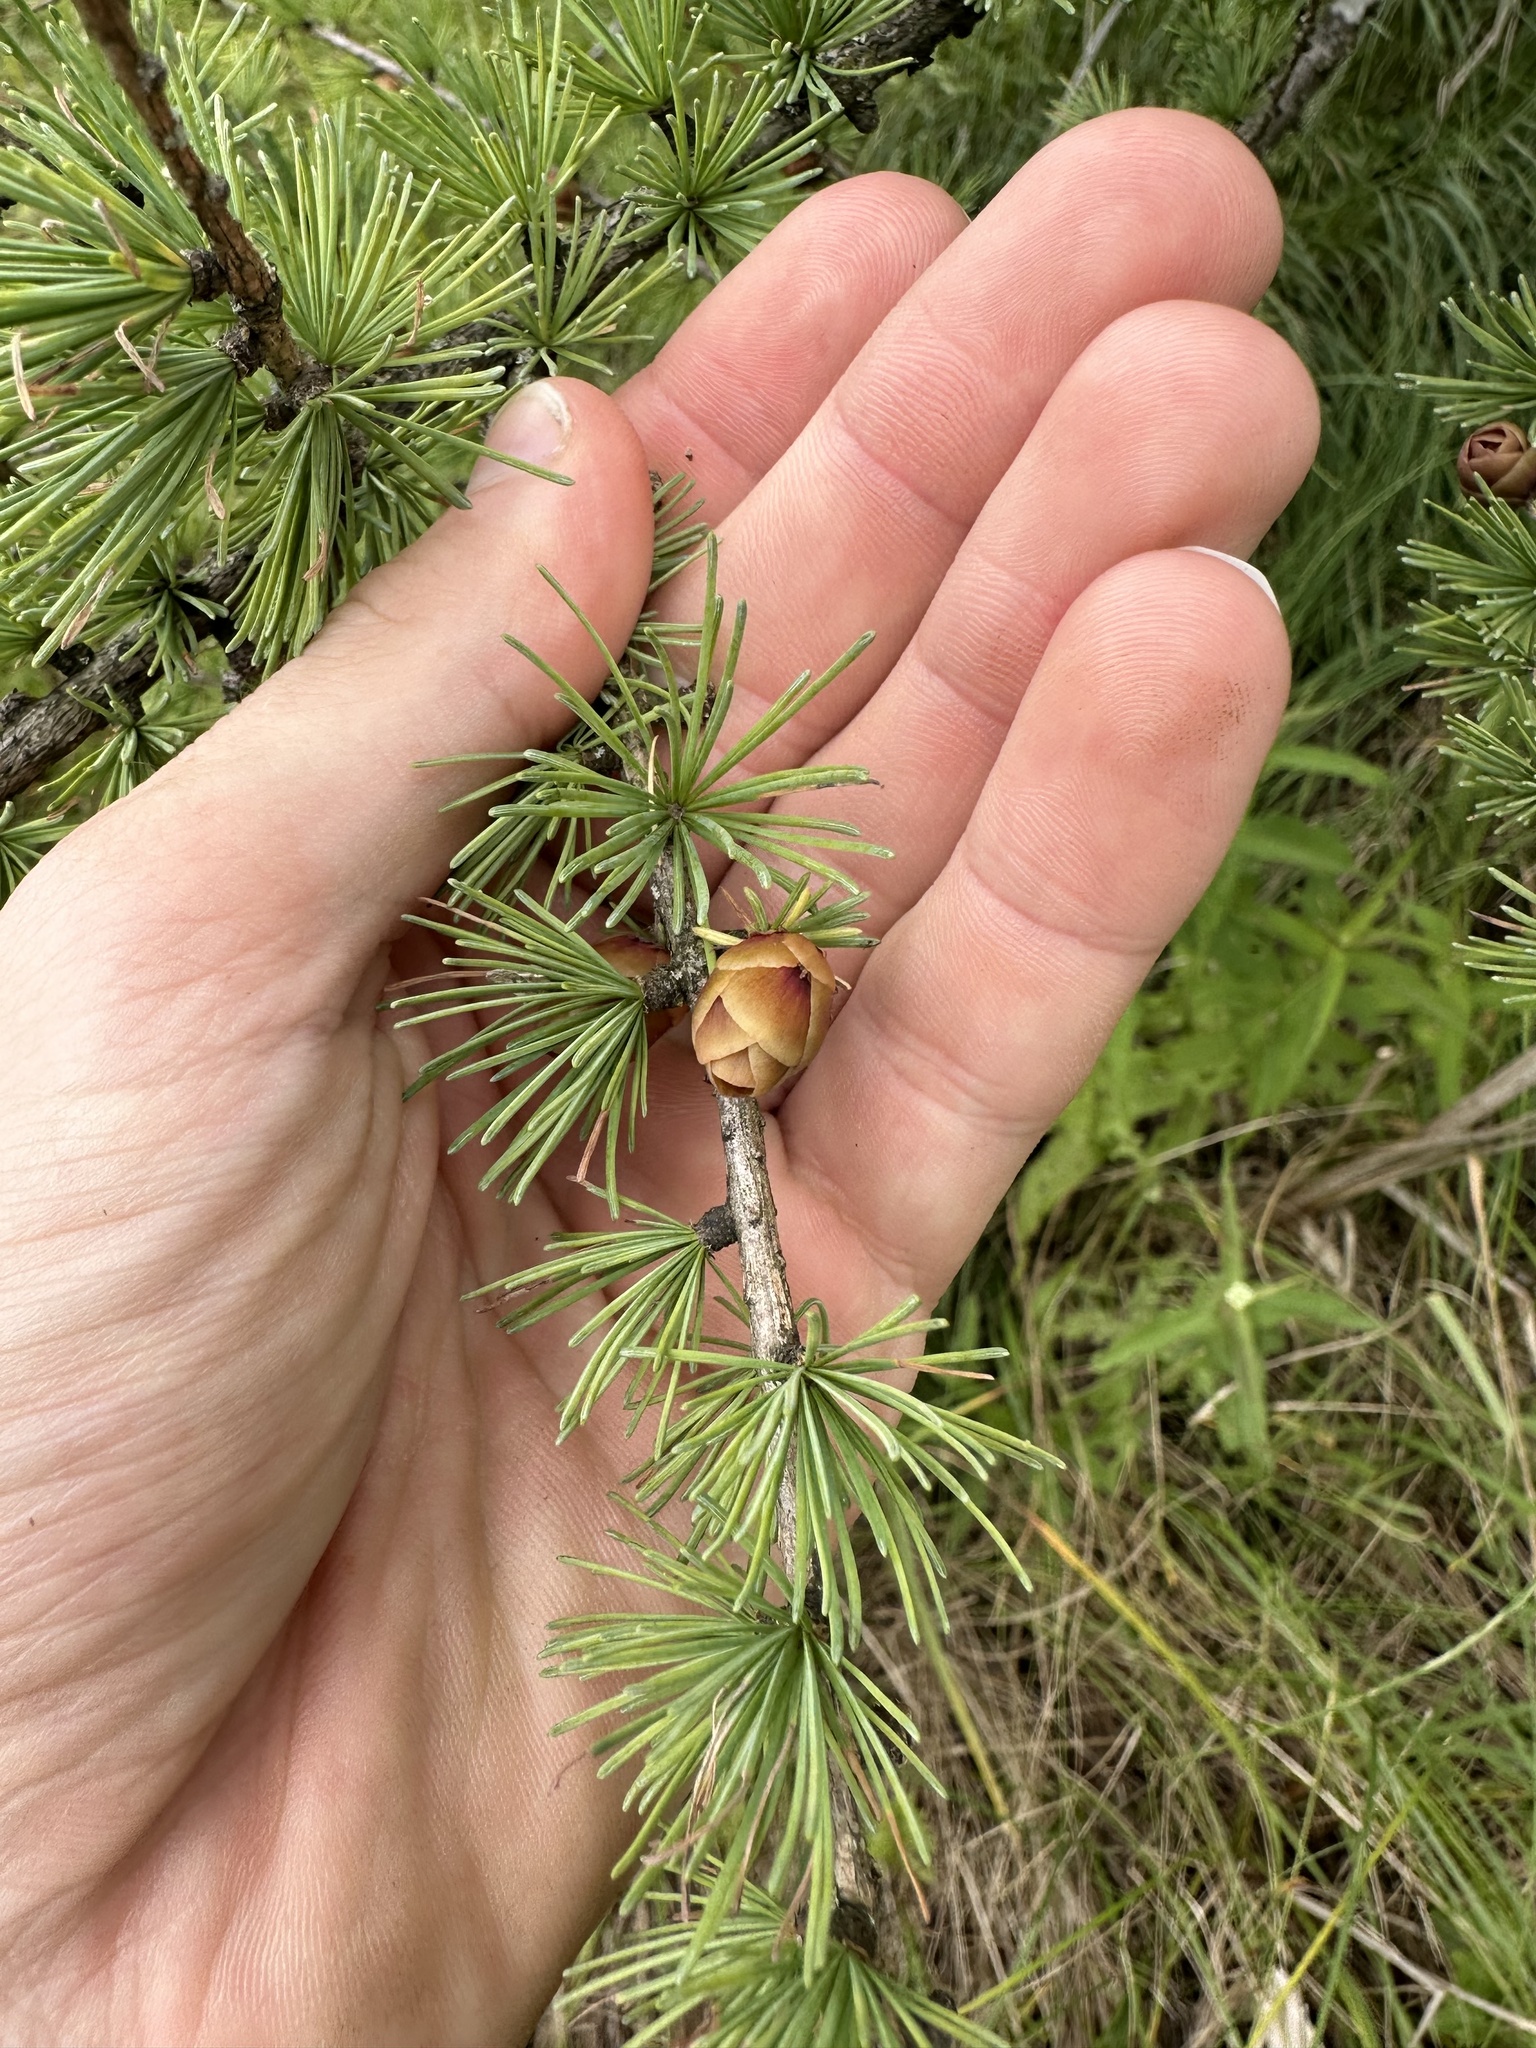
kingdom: Plantae
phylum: Tracheophyta
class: Pinopsida
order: Pinales
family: Pinaceae
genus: Larix
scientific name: Larix laricina
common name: American larch
